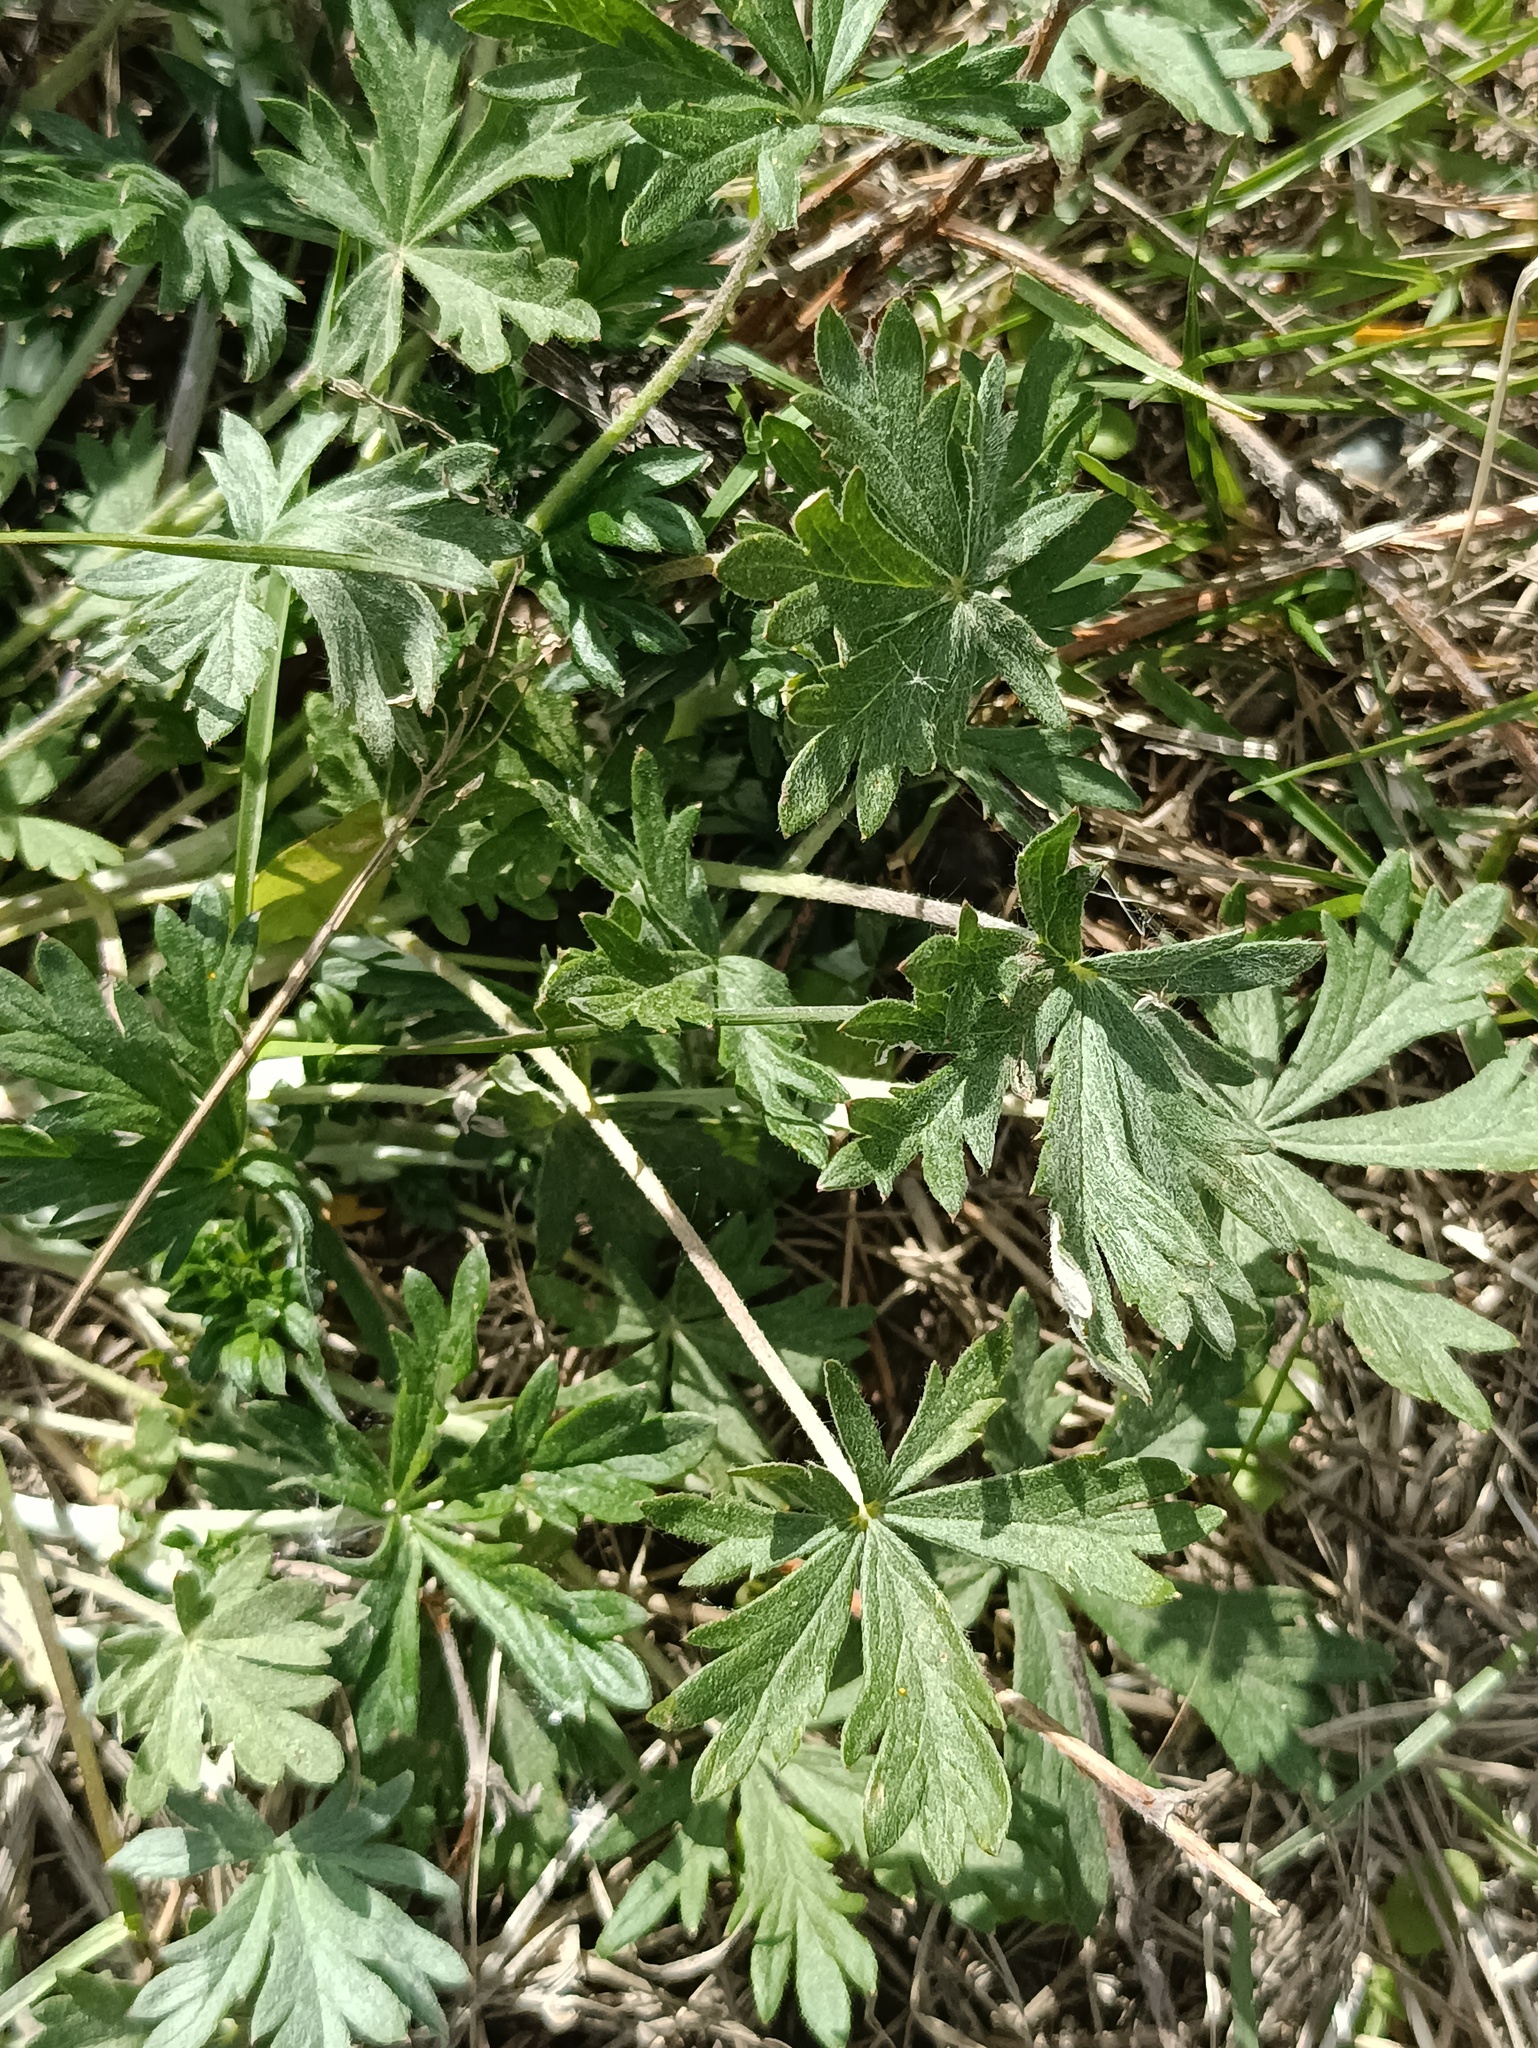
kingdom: Plantae
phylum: Tracheophyta
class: Magnoliopsida
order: Rosales
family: Rosaceae
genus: Potentilla
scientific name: Potentilla argentea
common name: Hoary cinquefoil
